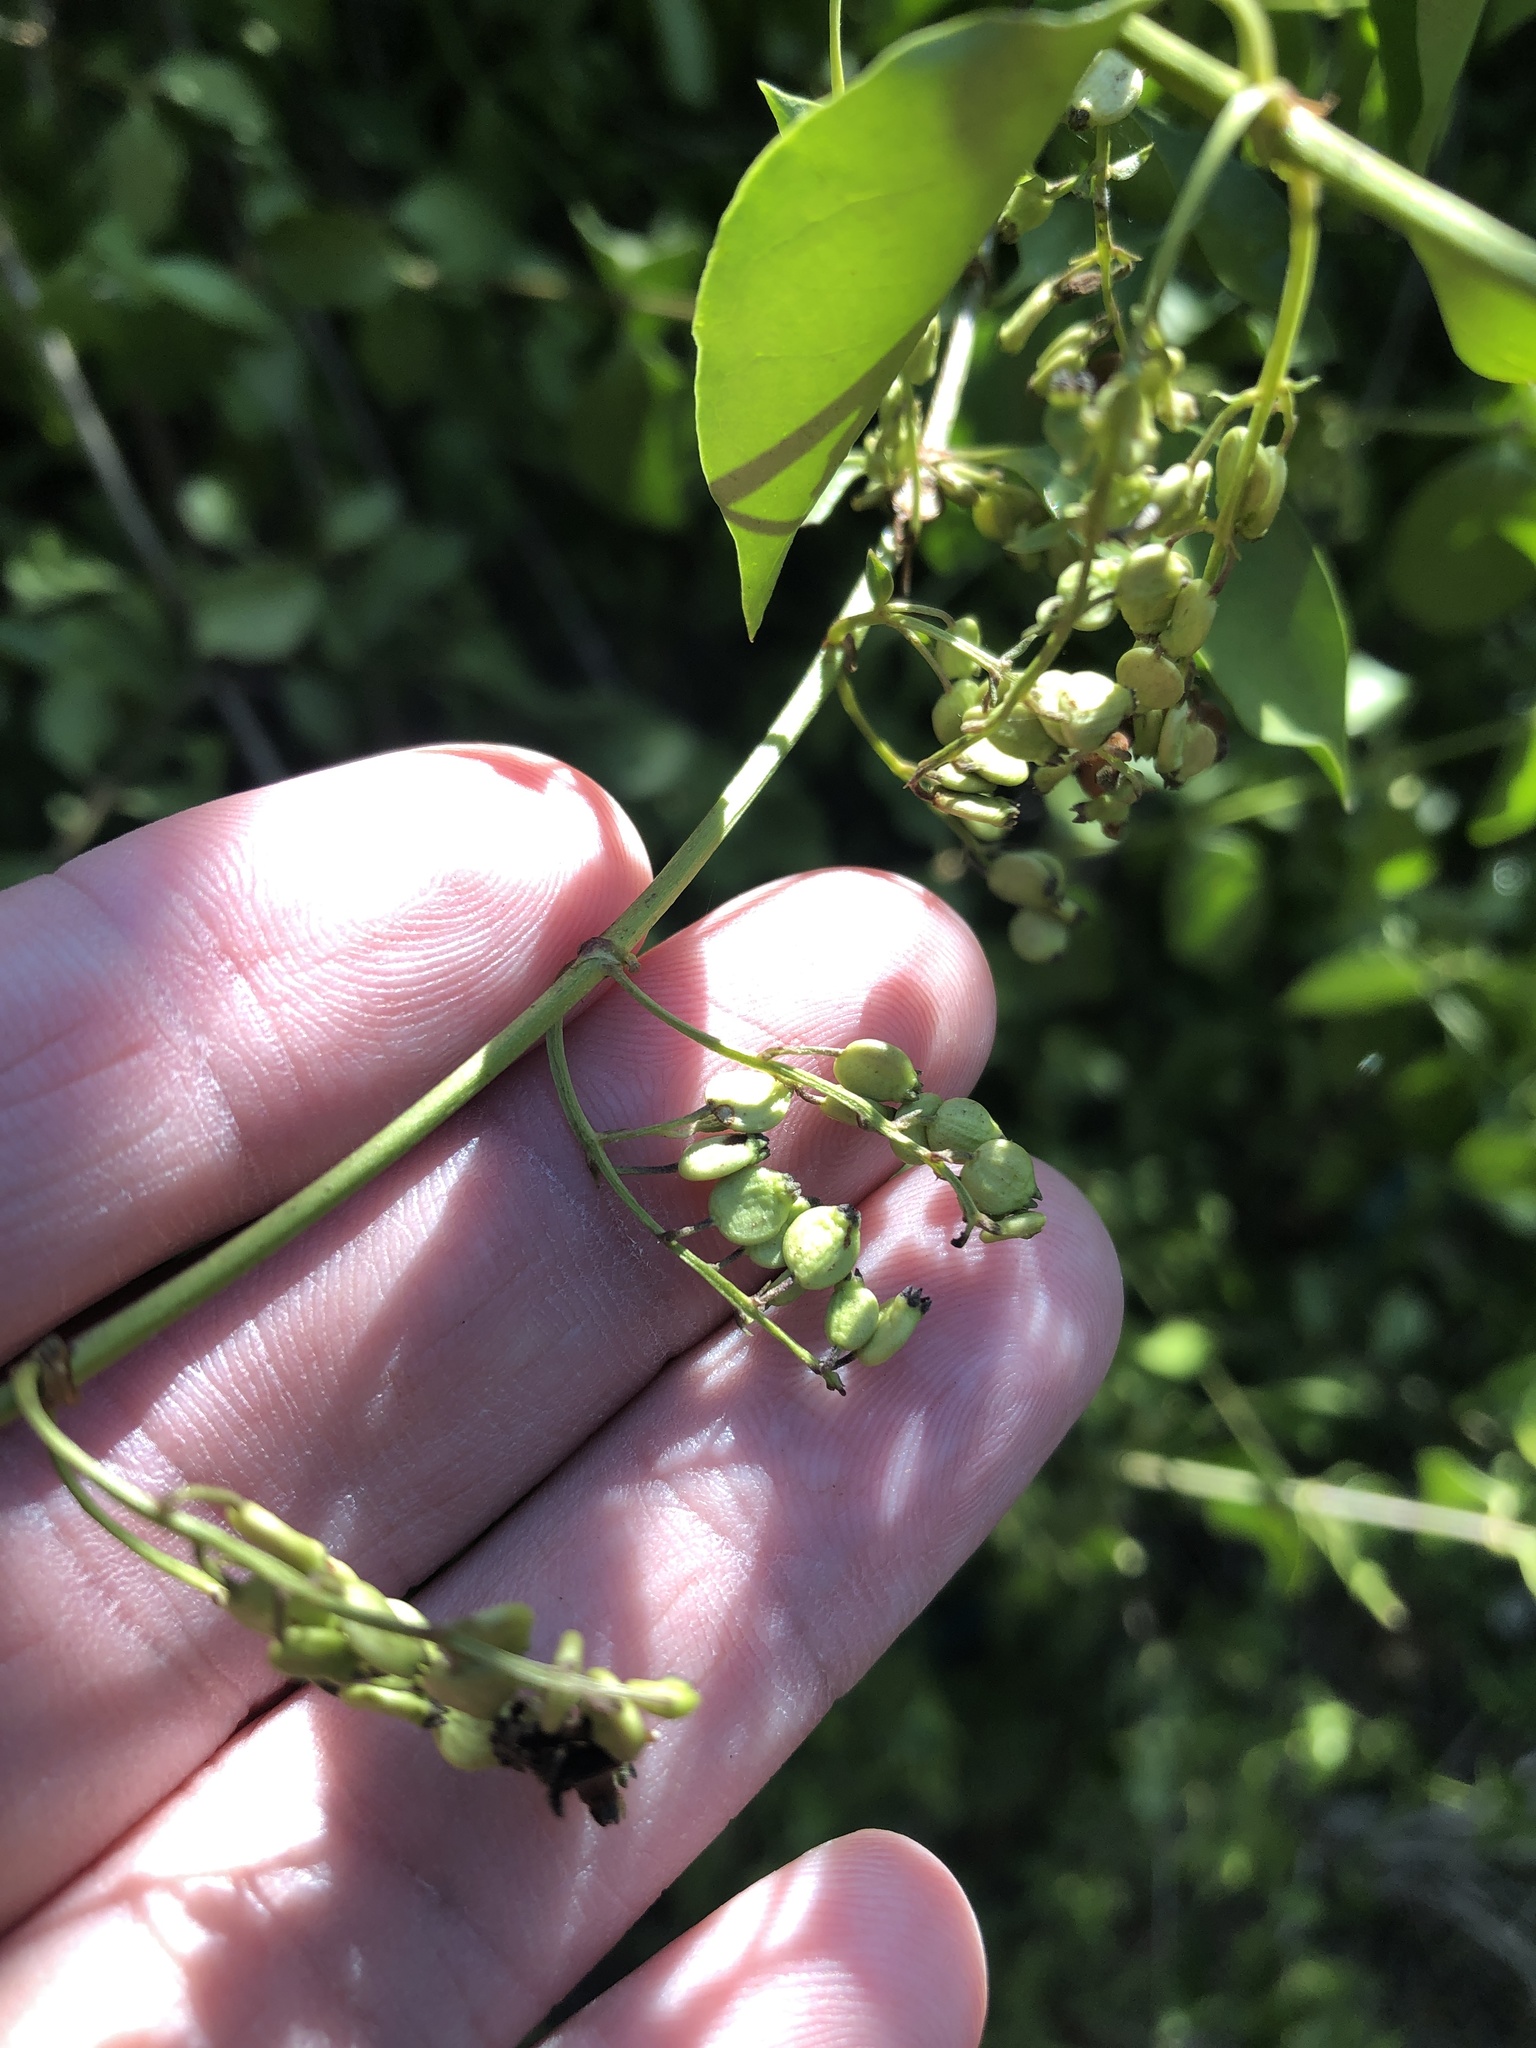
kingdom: Plantae
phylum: Tracheophyta
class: Magnoliopsida
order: Gentianales
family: Rubiaceae
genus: Chiococca
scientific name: Chiococca alba
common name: Snowberry
